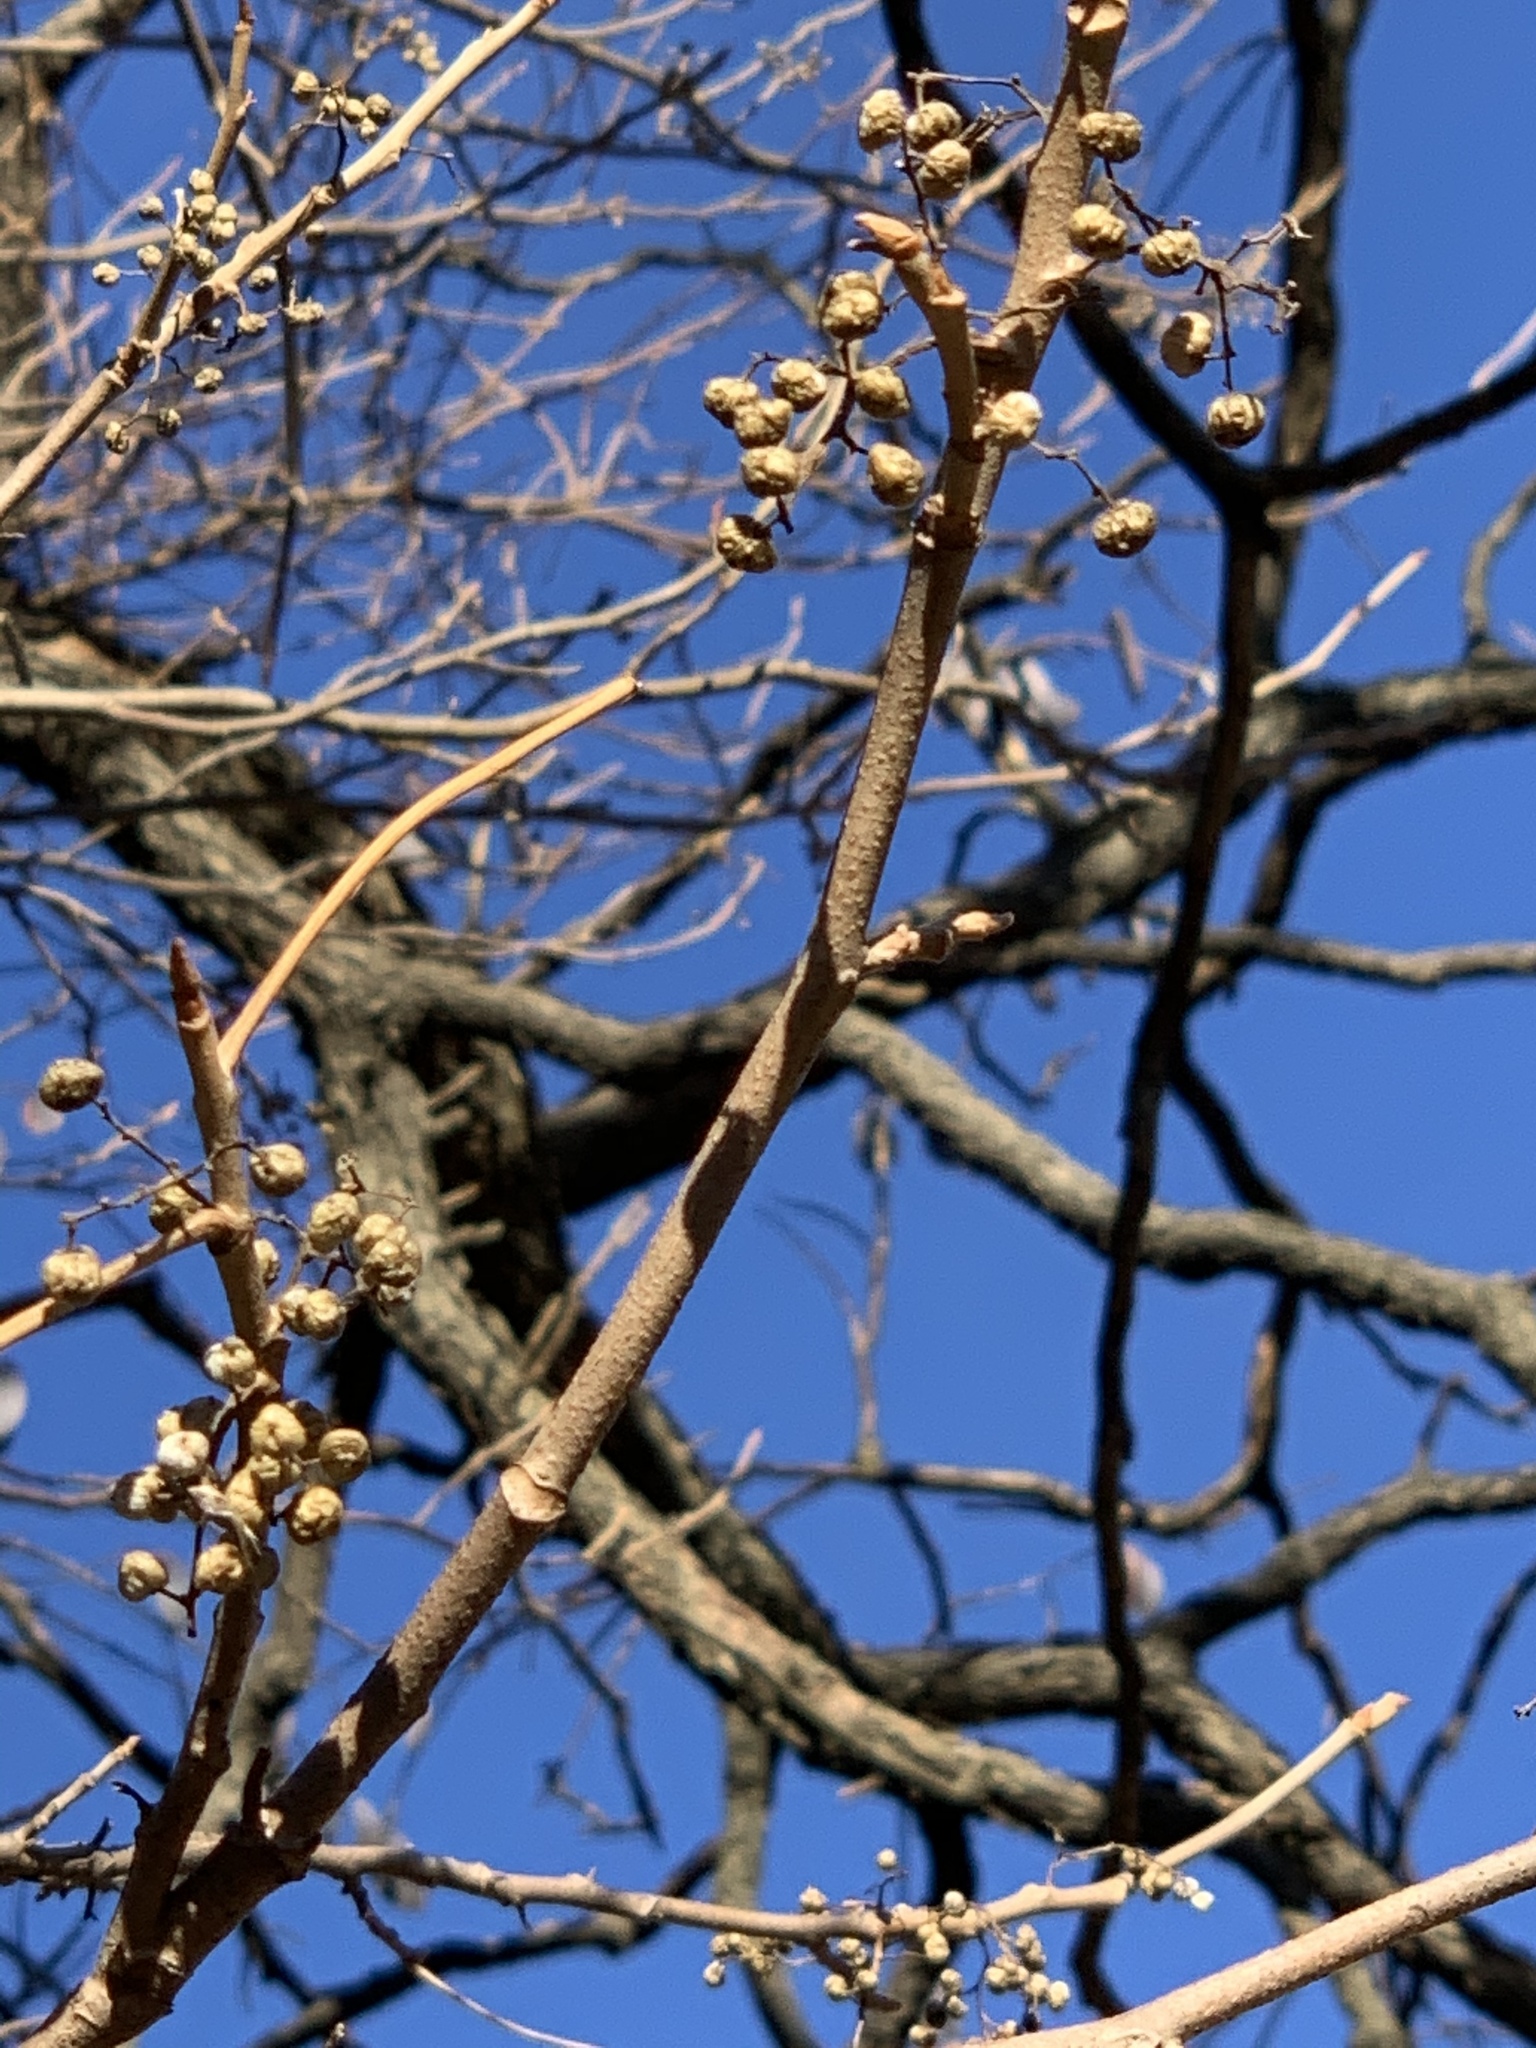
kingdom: Plantae
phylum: Tracheophyta
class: Magnoliopsida
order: Sapindales
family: Anacardiaceae
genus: Toxicodendron
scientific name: Toxicodendron radicans
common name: Poison ivy
